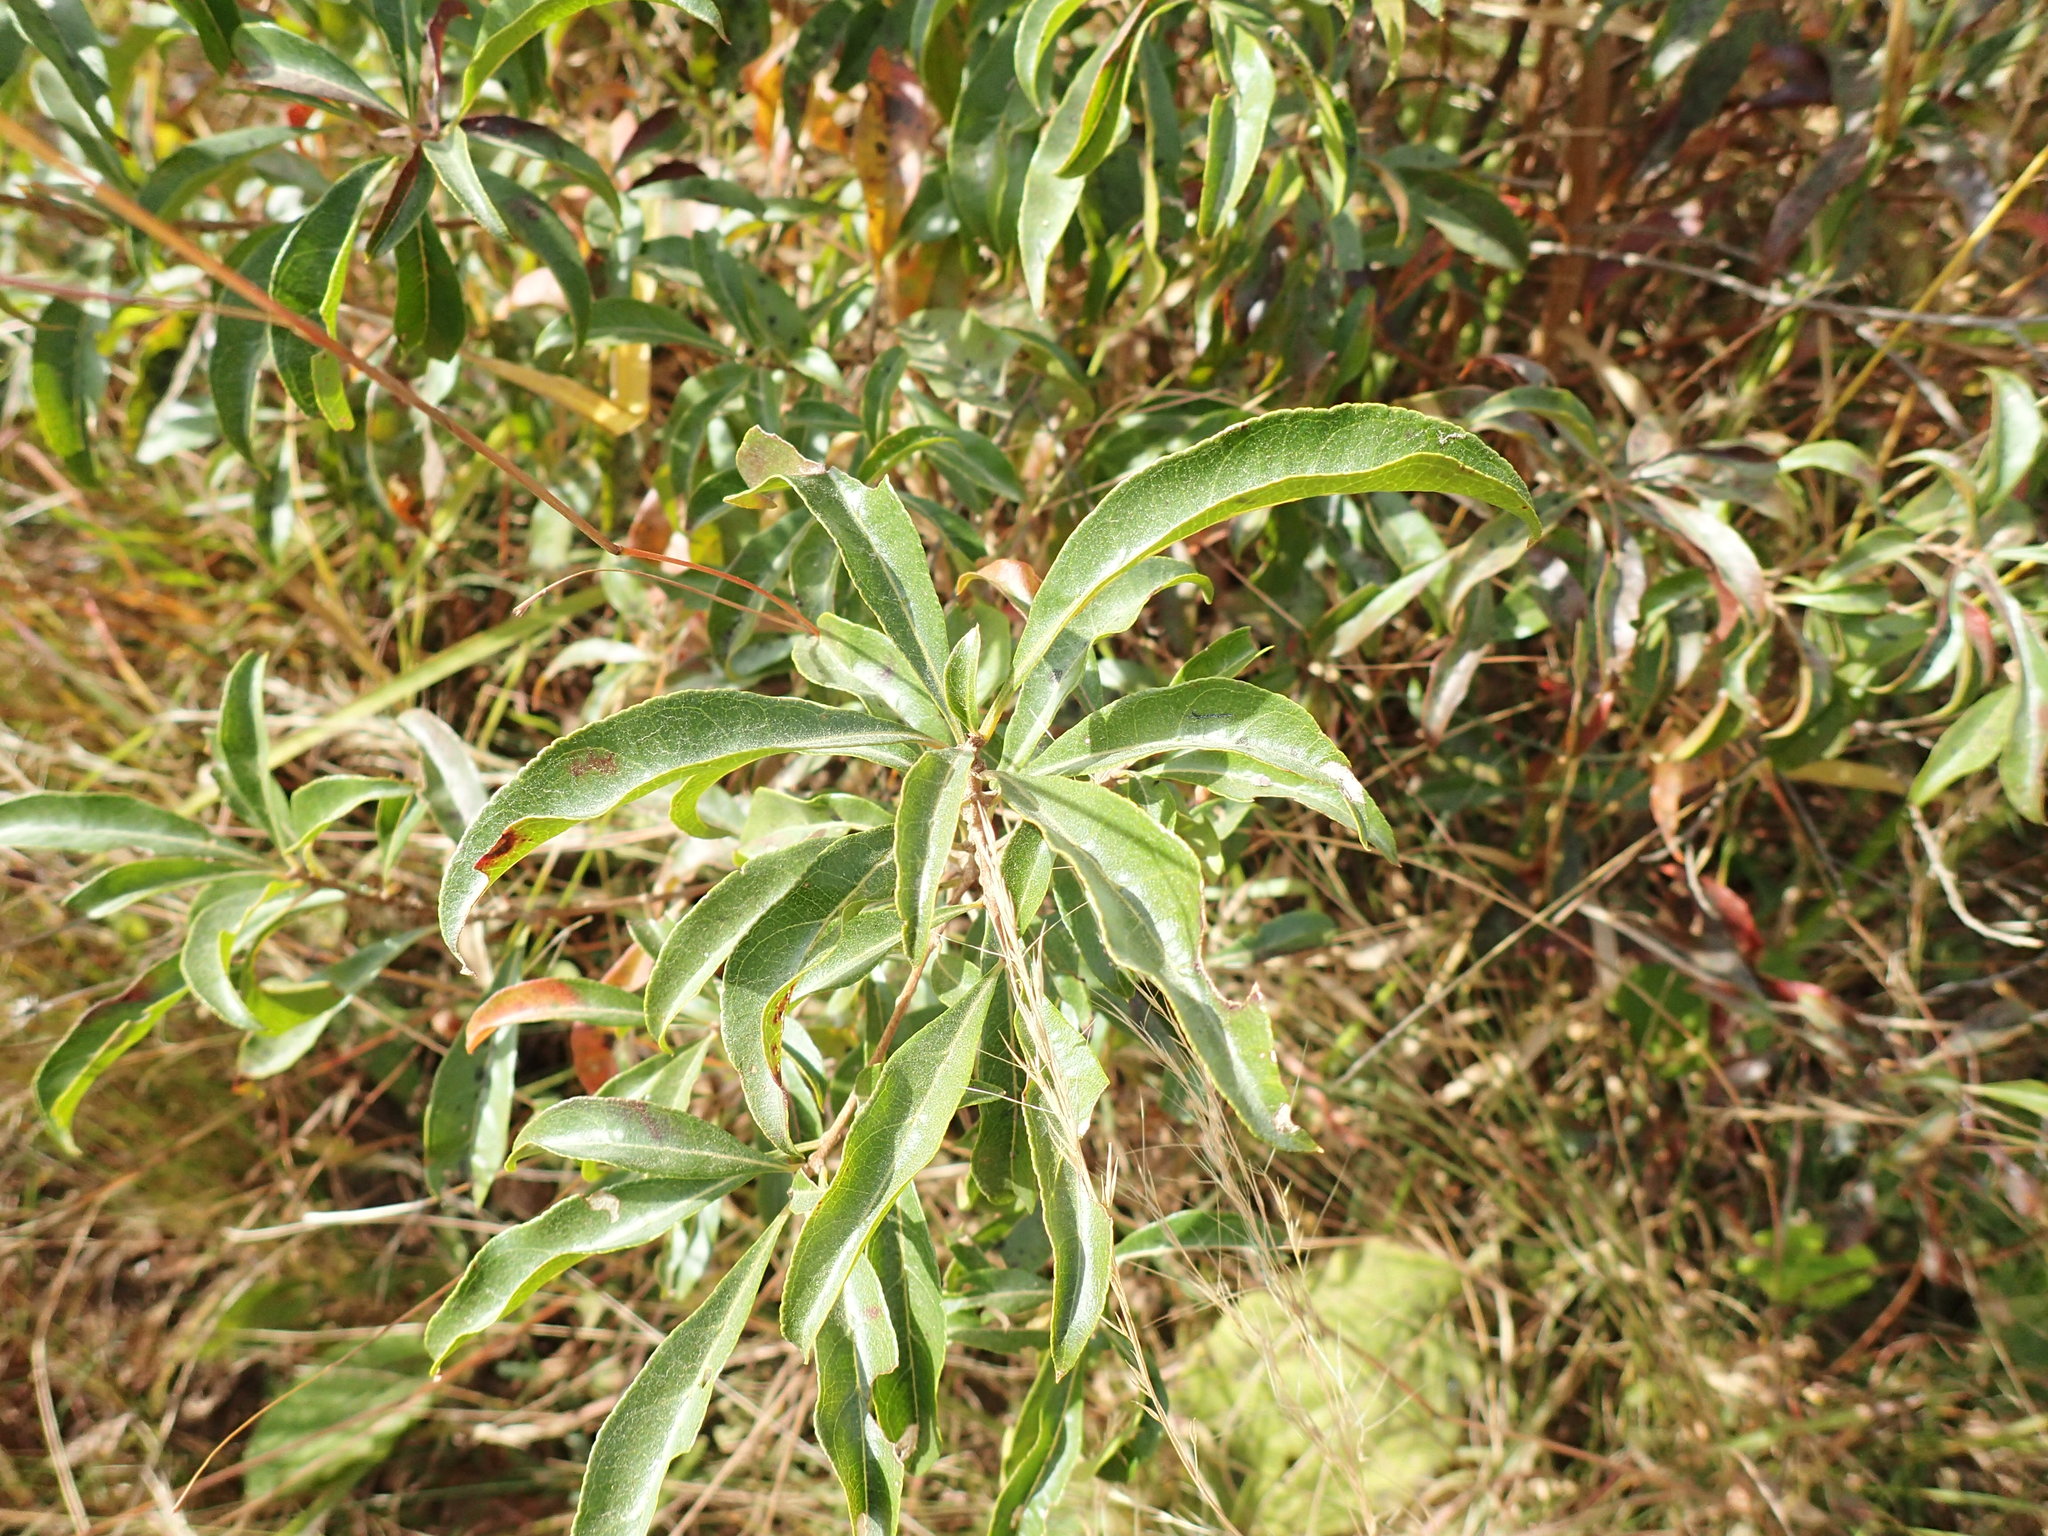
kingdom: Plantae
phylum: Tracheophyta
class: Magnoliopsida
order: Myrtales
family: Myrtaceae
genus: Heteropyxis
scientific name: Heteropyxis natalensis
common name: Lavender tree
